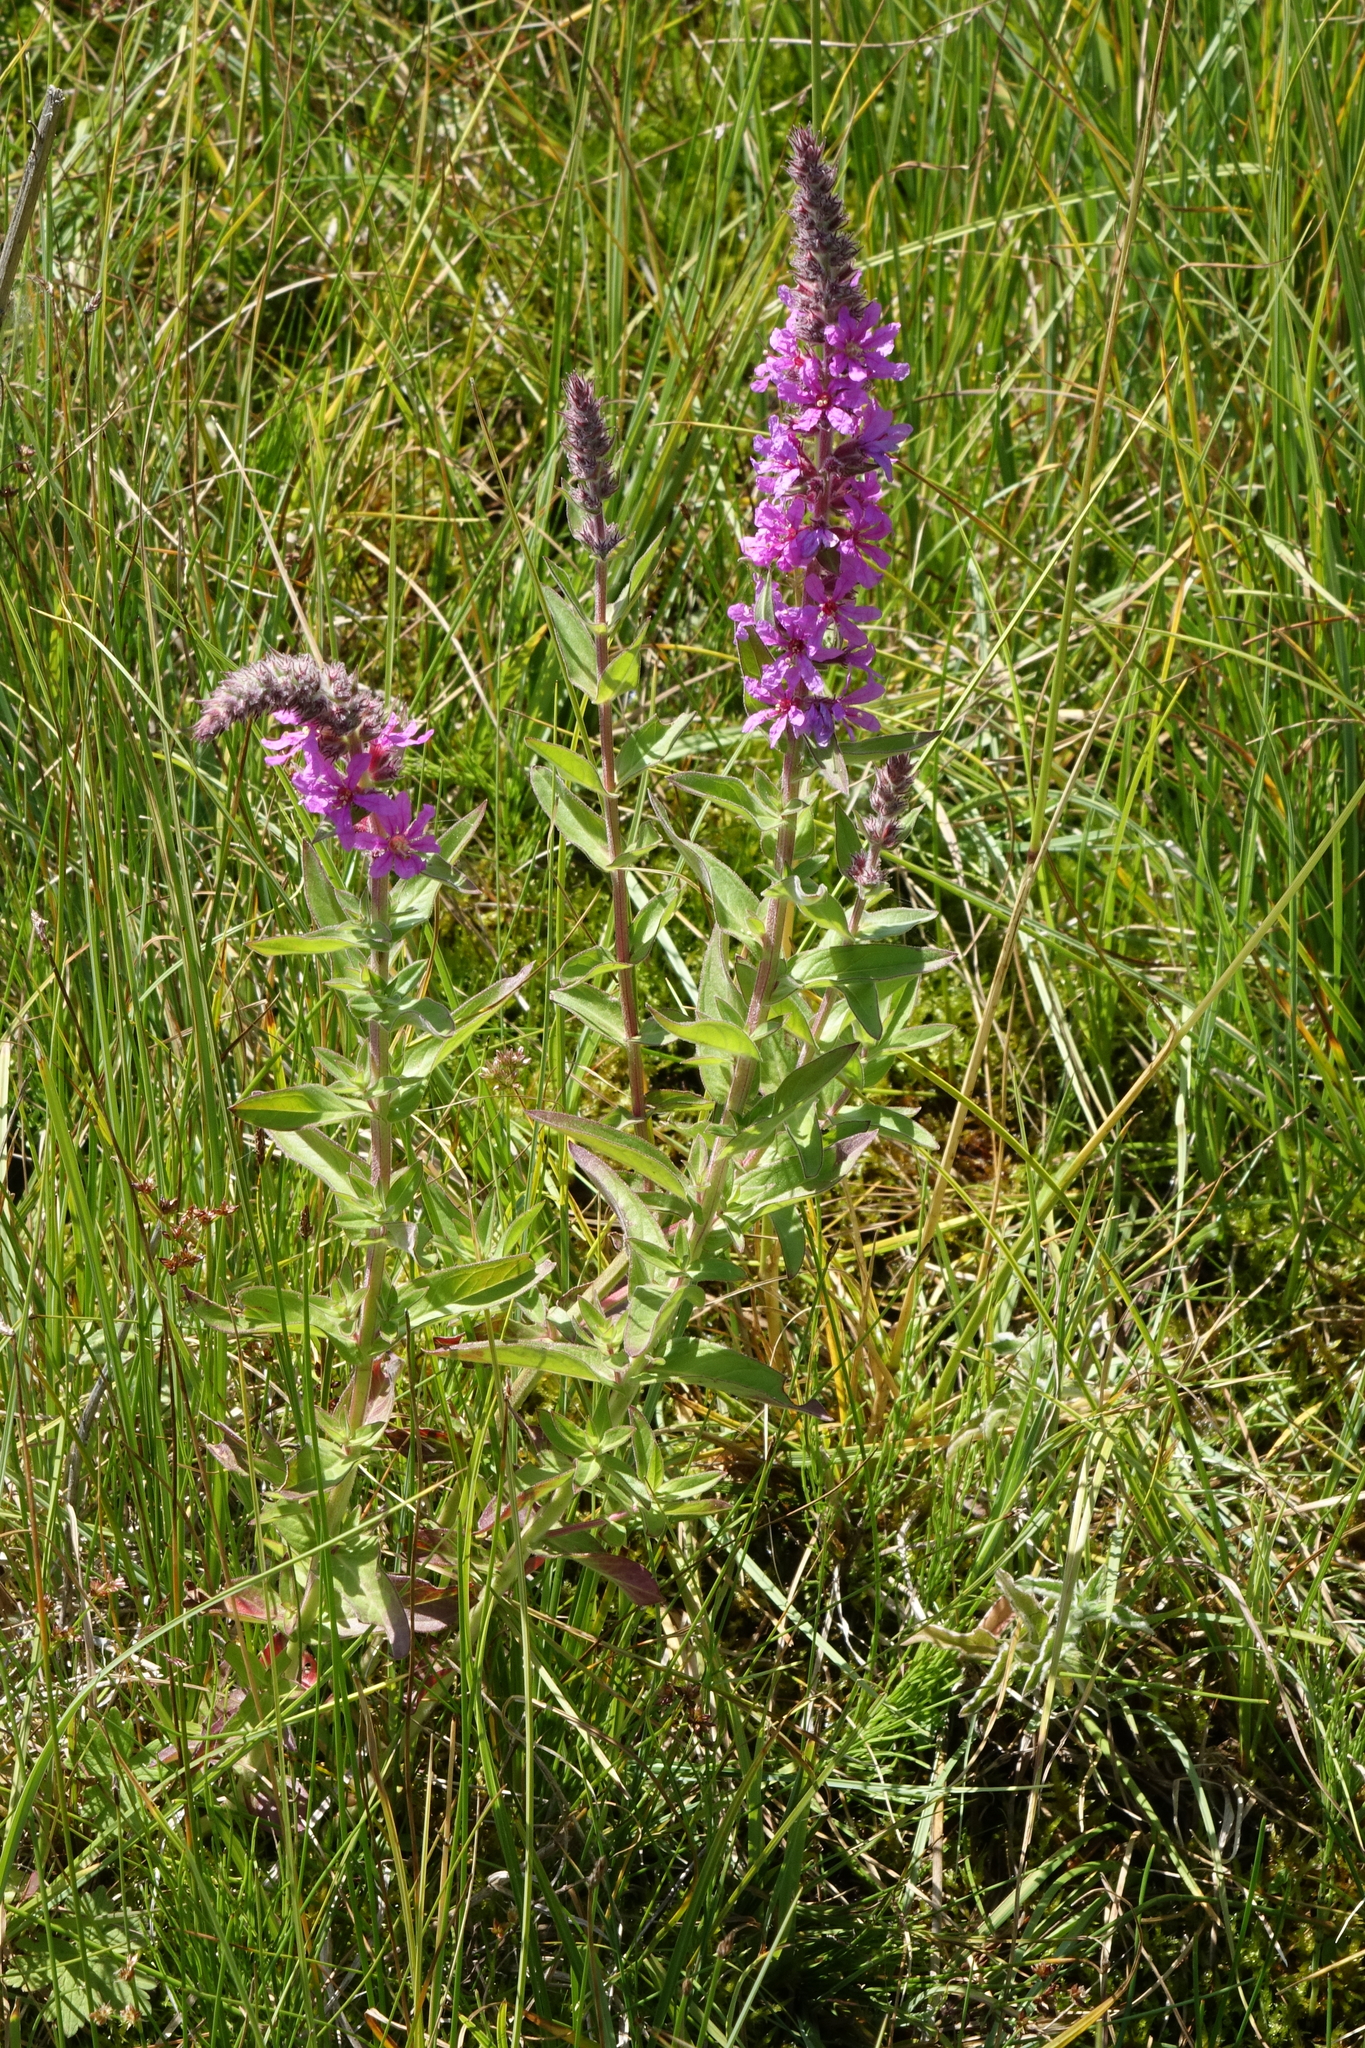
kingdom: Plantae
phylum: Tracheophyta
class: Magnoliopsida
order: Myrtales
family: Lythraceae
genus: Lythrum
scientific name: Lythrum salicaria
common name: Purple loosestrife
